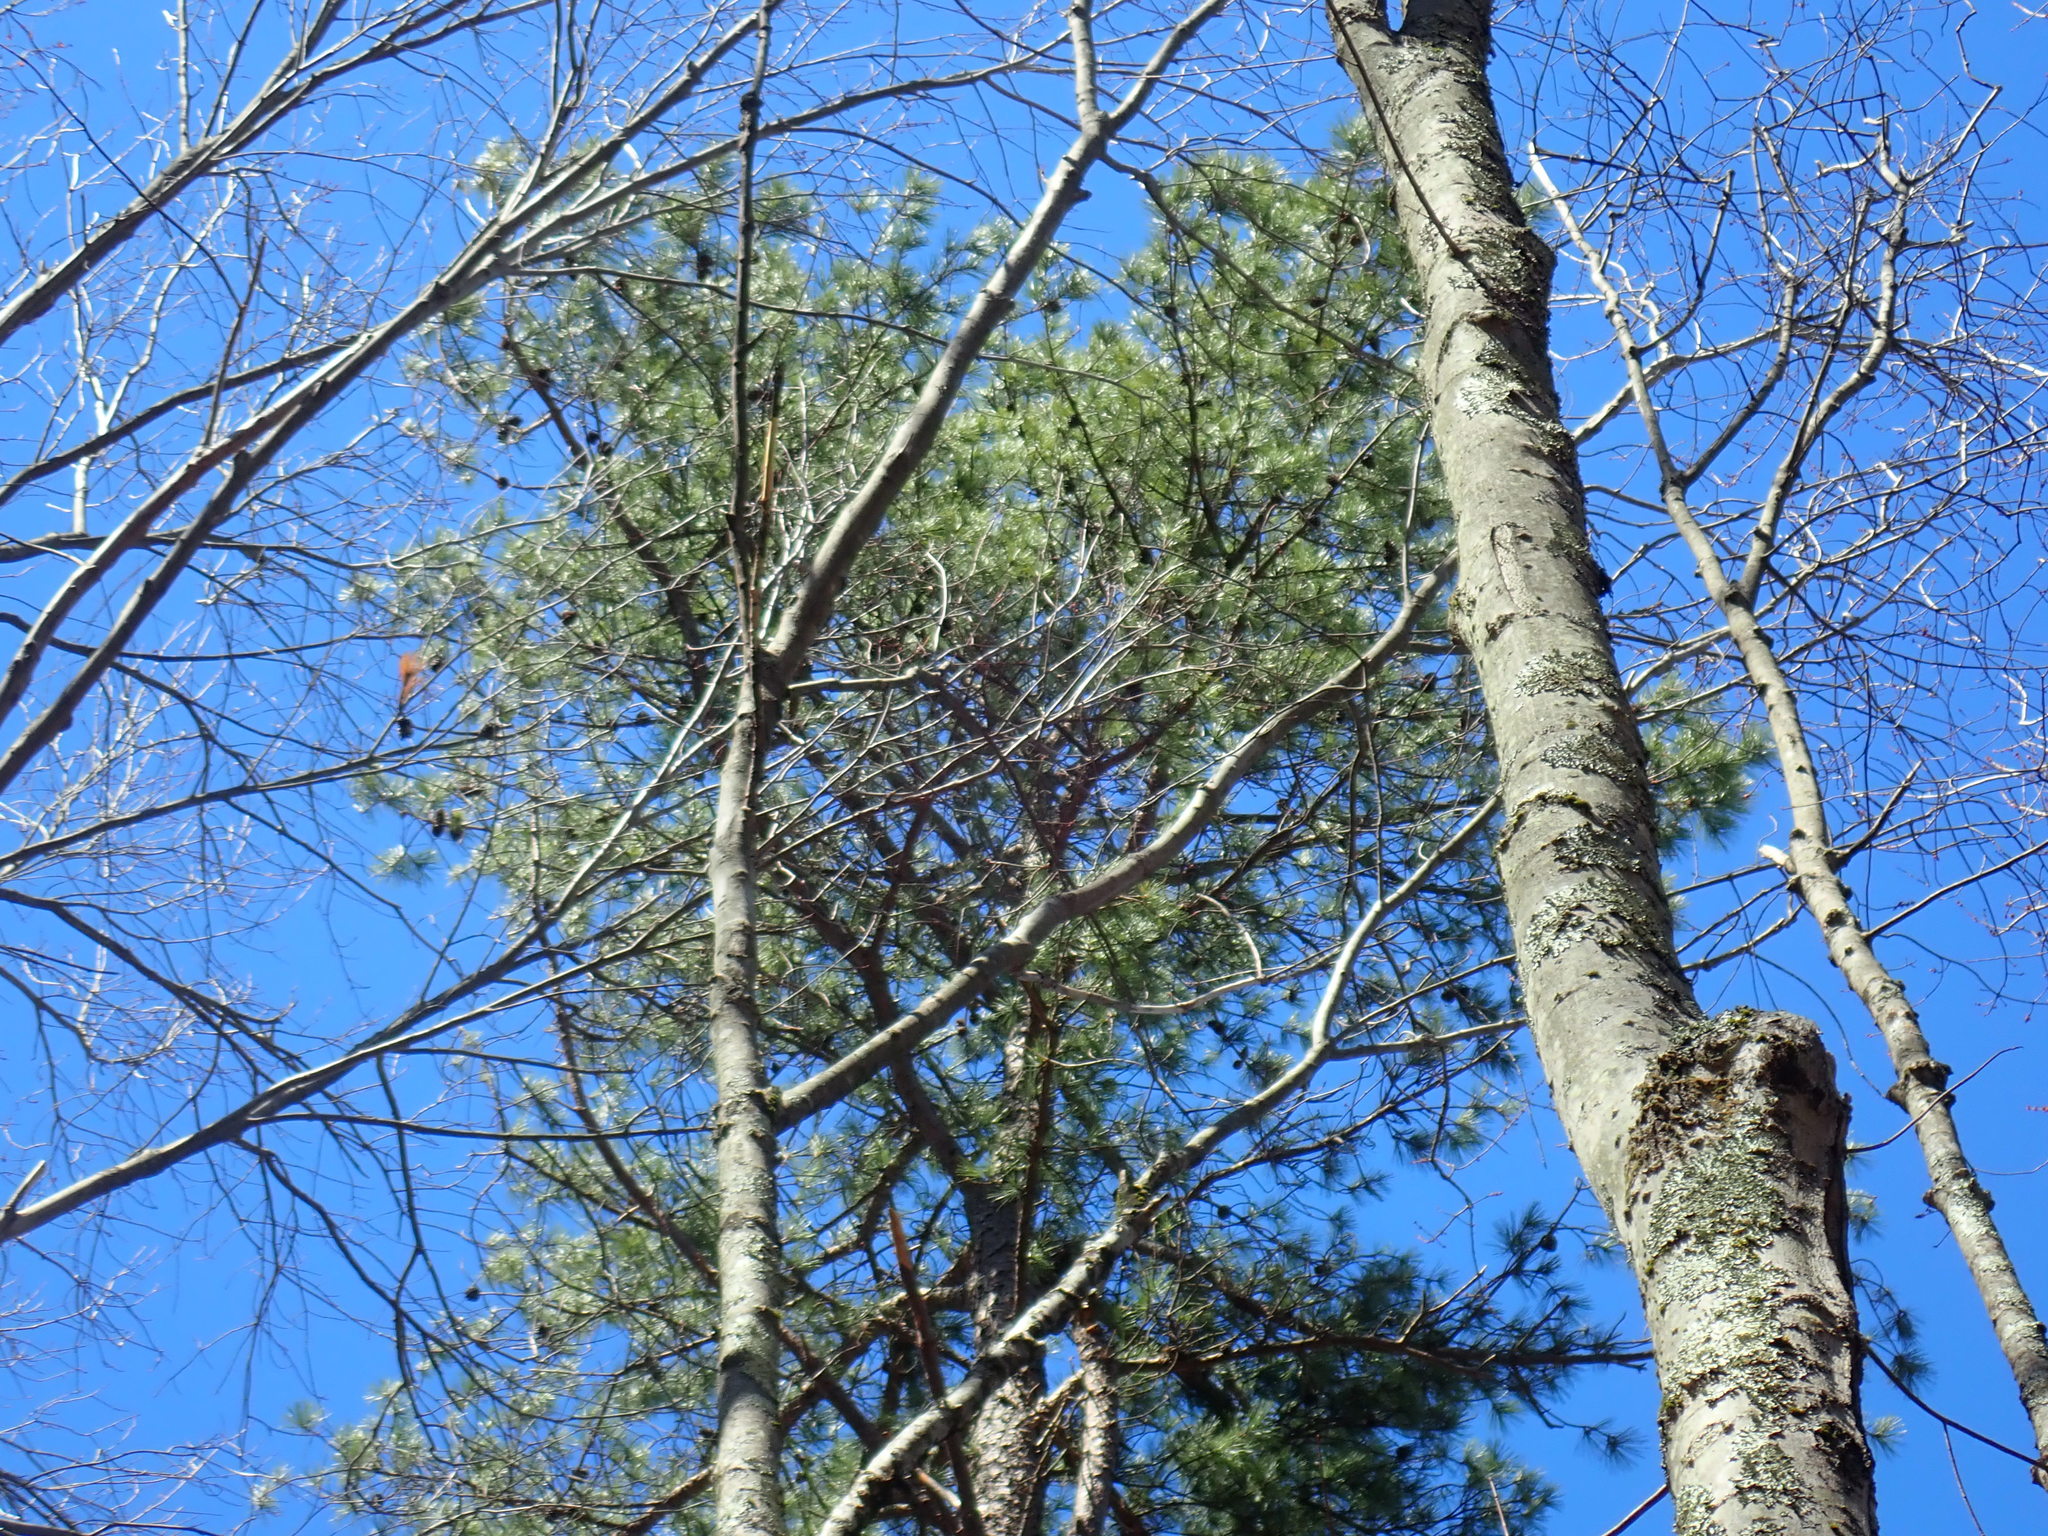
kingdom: Plantae
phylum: Tracheophyta
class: Pinopsida
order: Pinales
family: Pinaceae
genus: Pinus
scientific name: Pinus rigida
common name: Pitch pine
